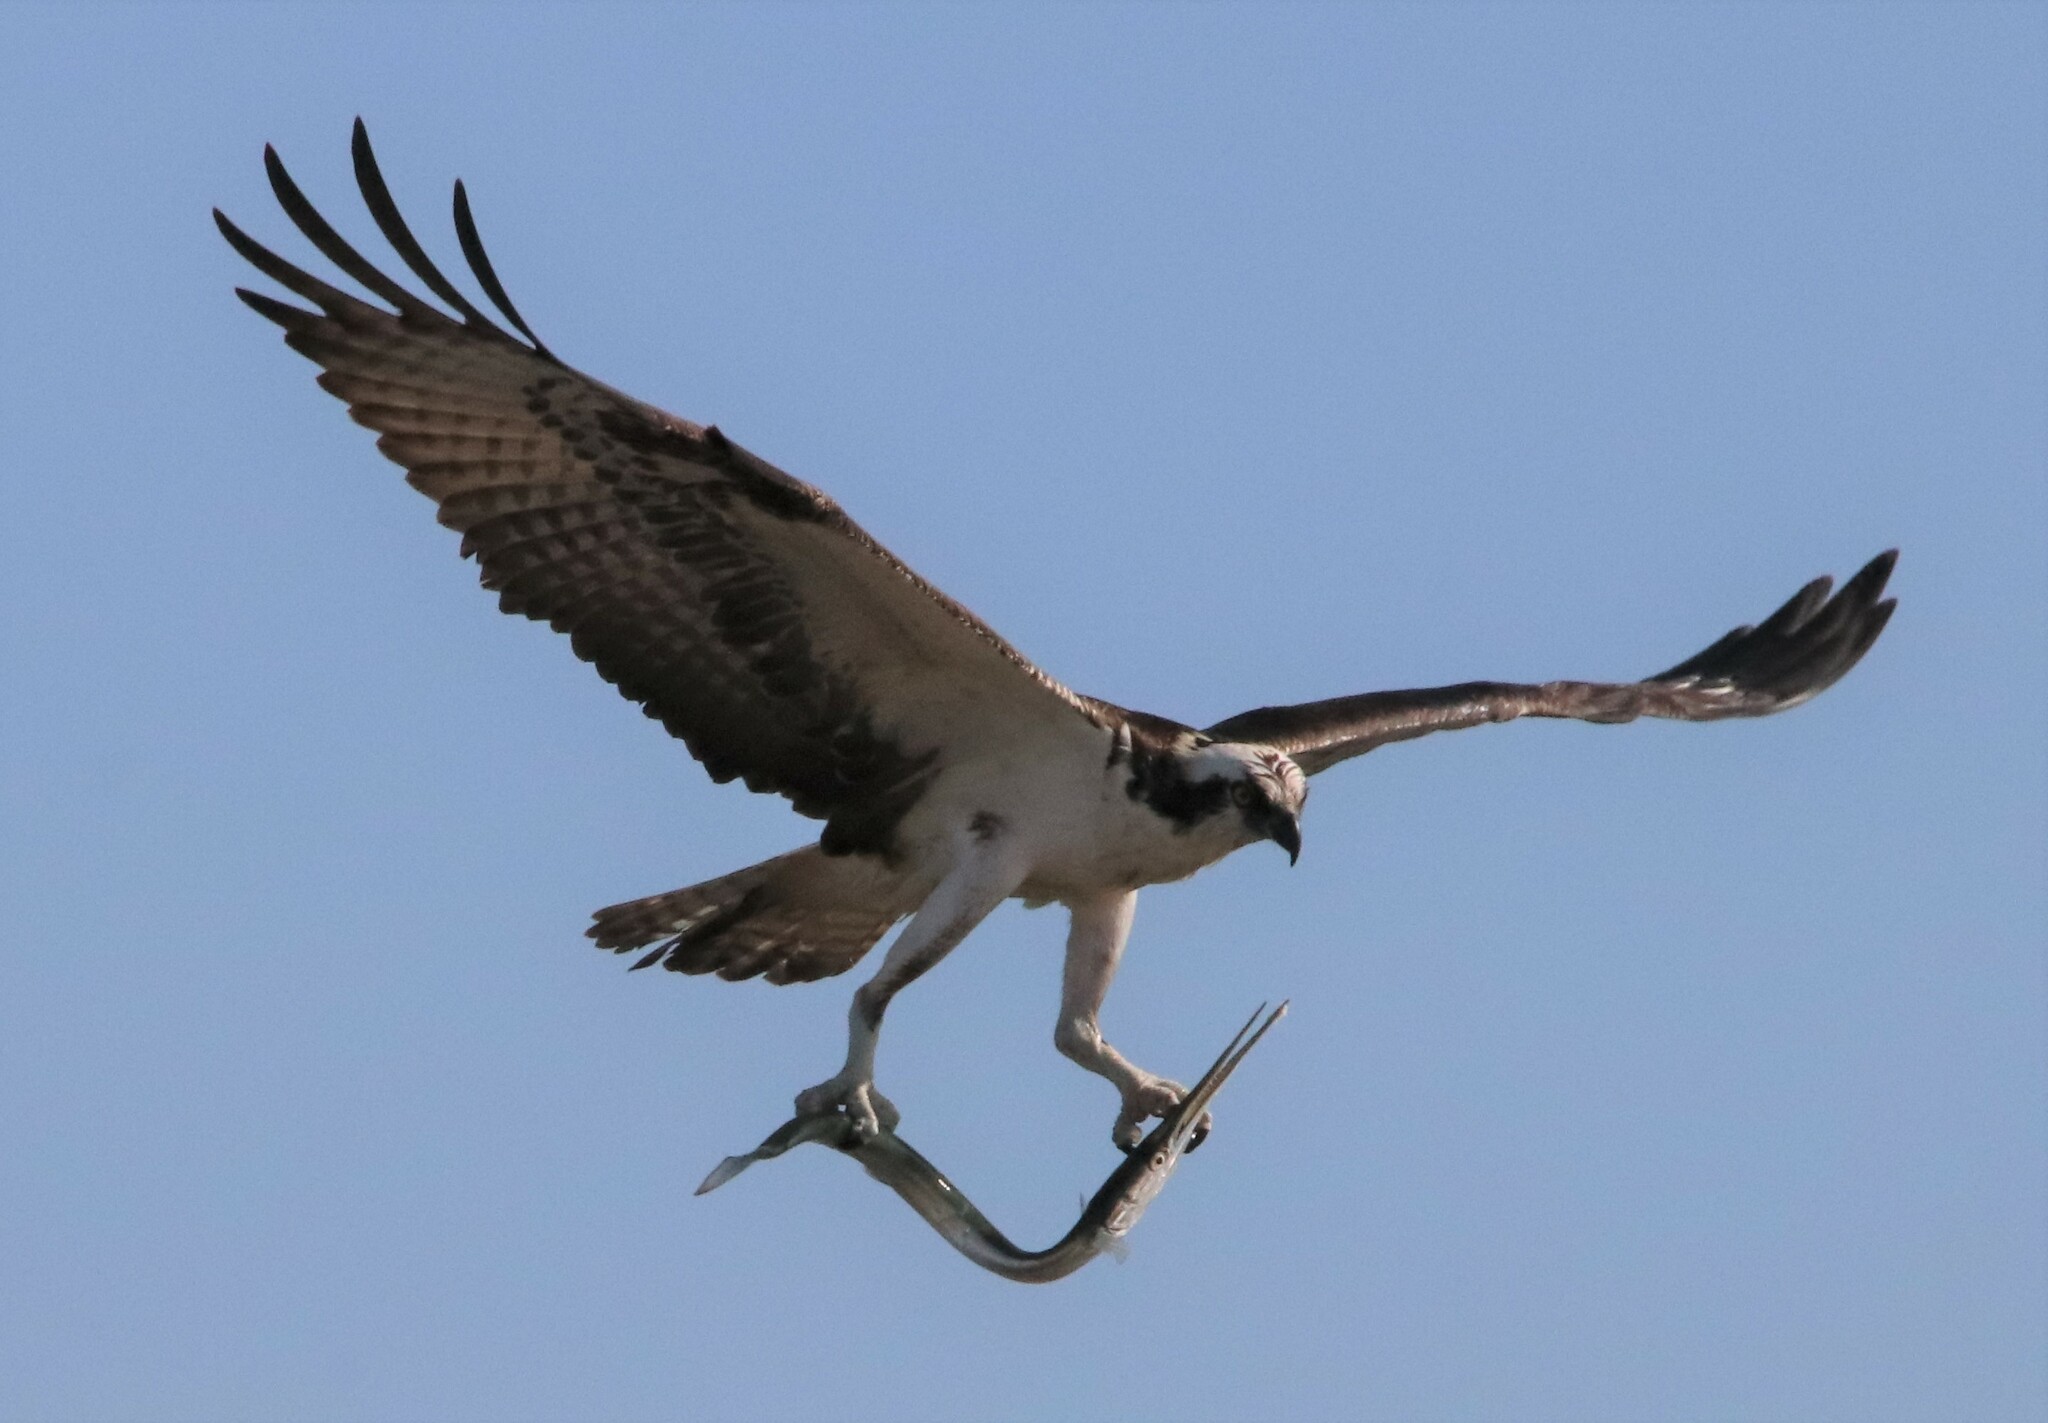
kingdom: Animalia
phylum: Chordata
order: Beloniformes
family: Belonidae
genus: Strongylura
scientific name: Strongylura exilis
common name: California needlefish
